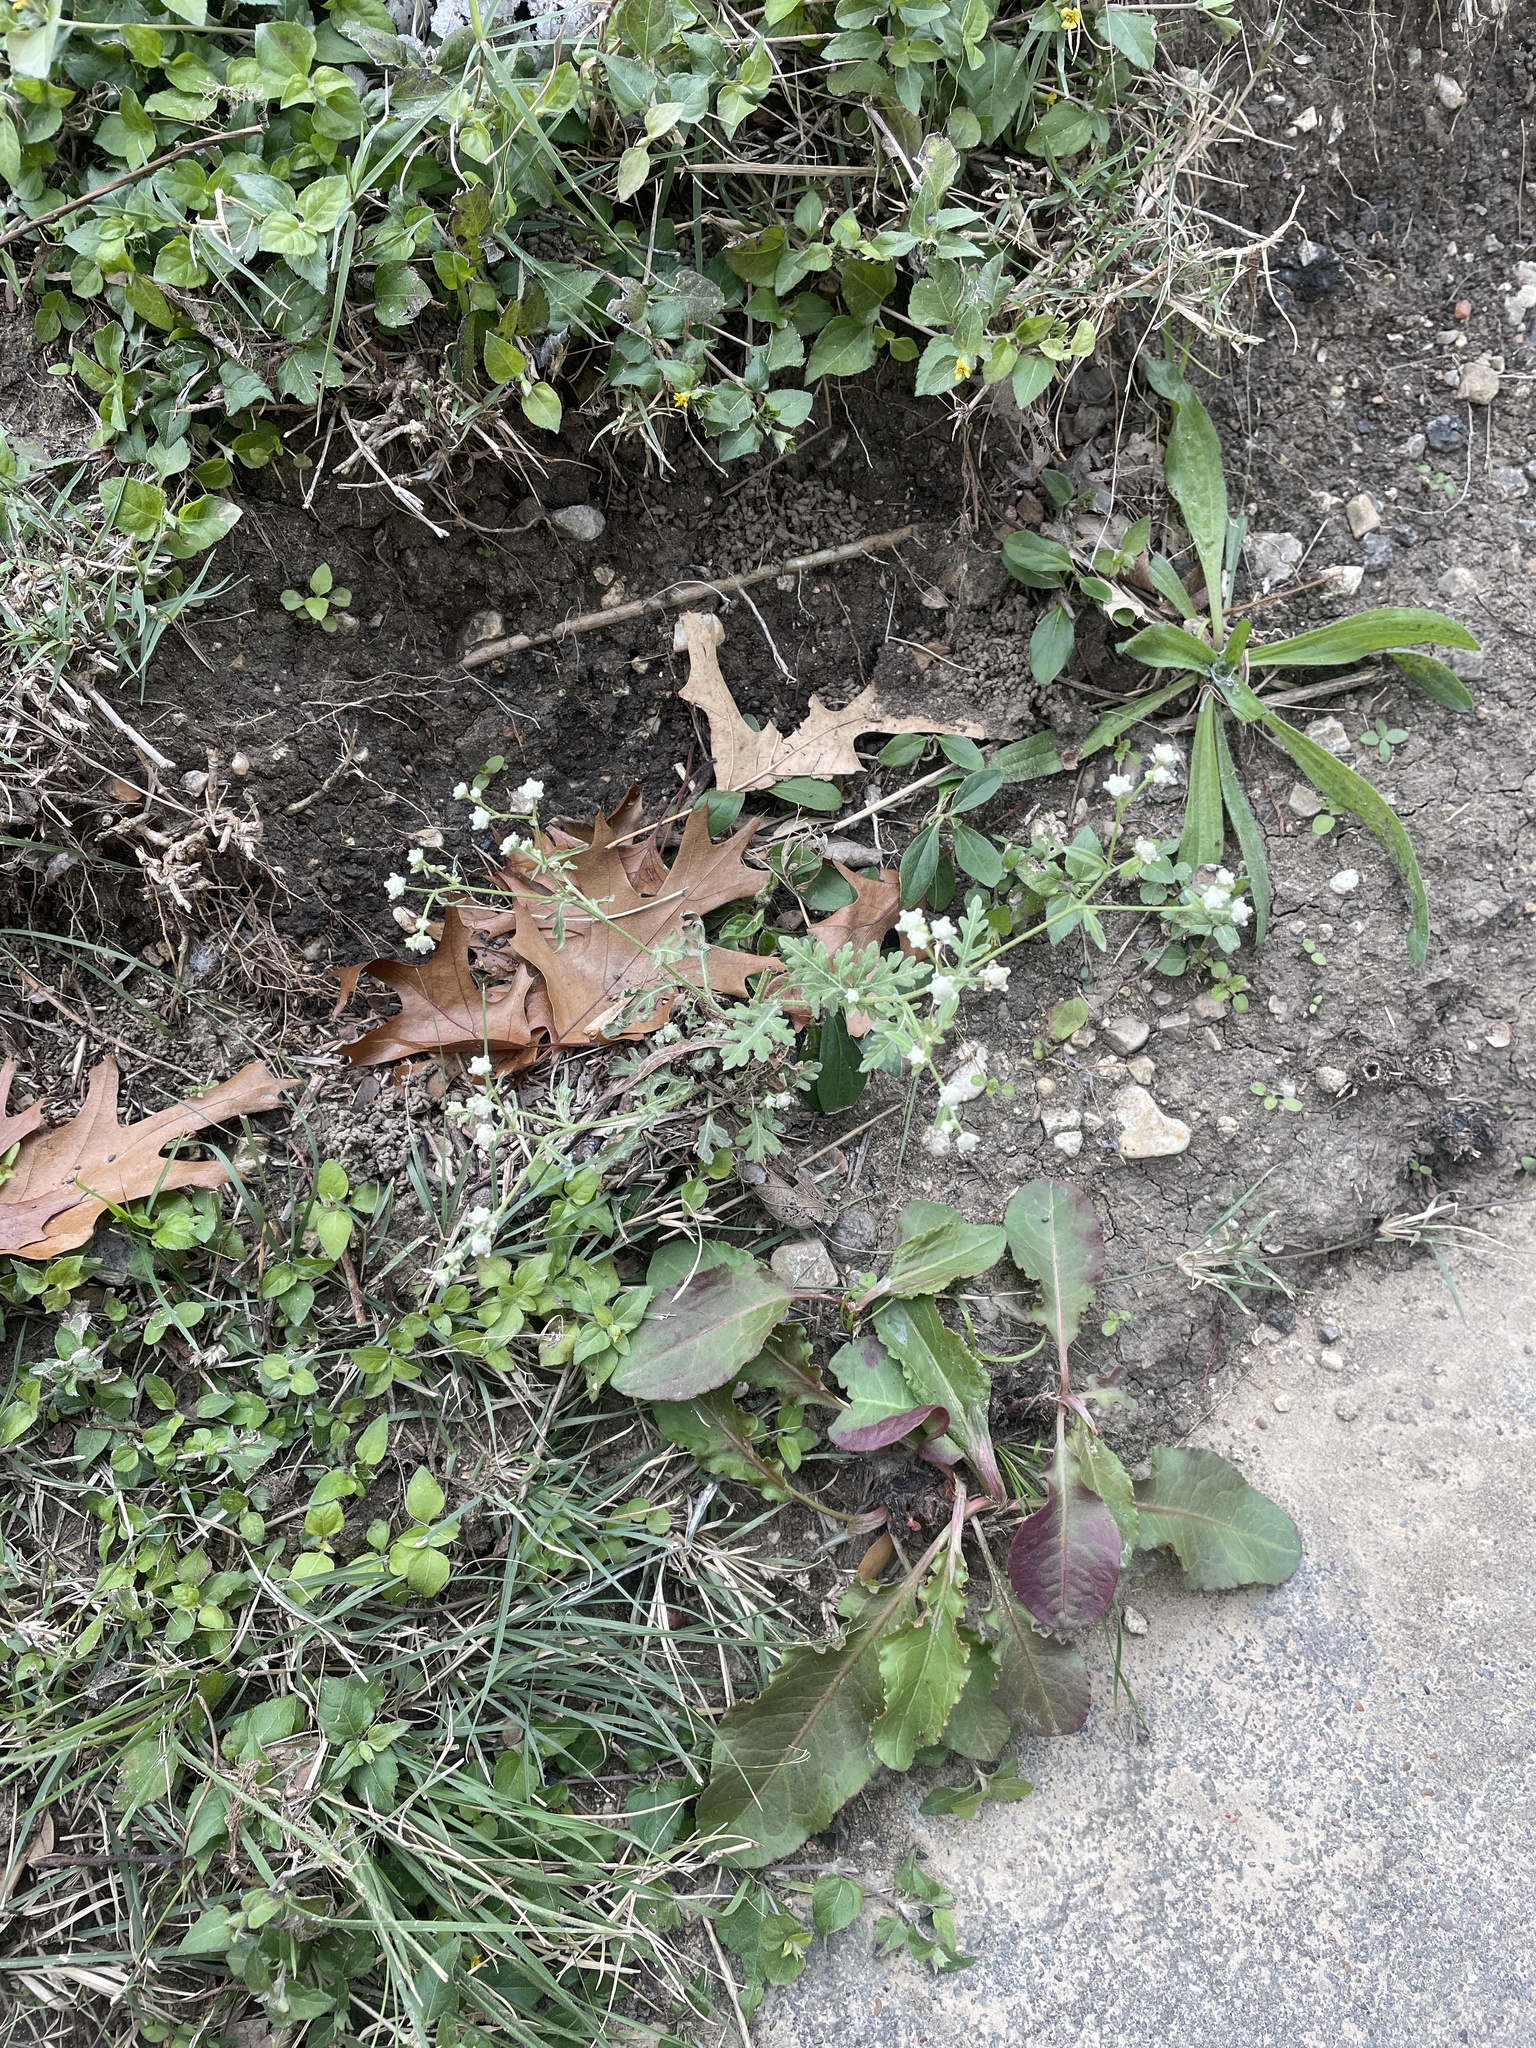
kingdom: Plantae
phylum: Tracheophyta
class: Magnoliopsida
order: Asterales
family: Asteraceae
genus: Parthenium
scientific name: Parthenium hysterophorus
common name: Santa maria feverfew
